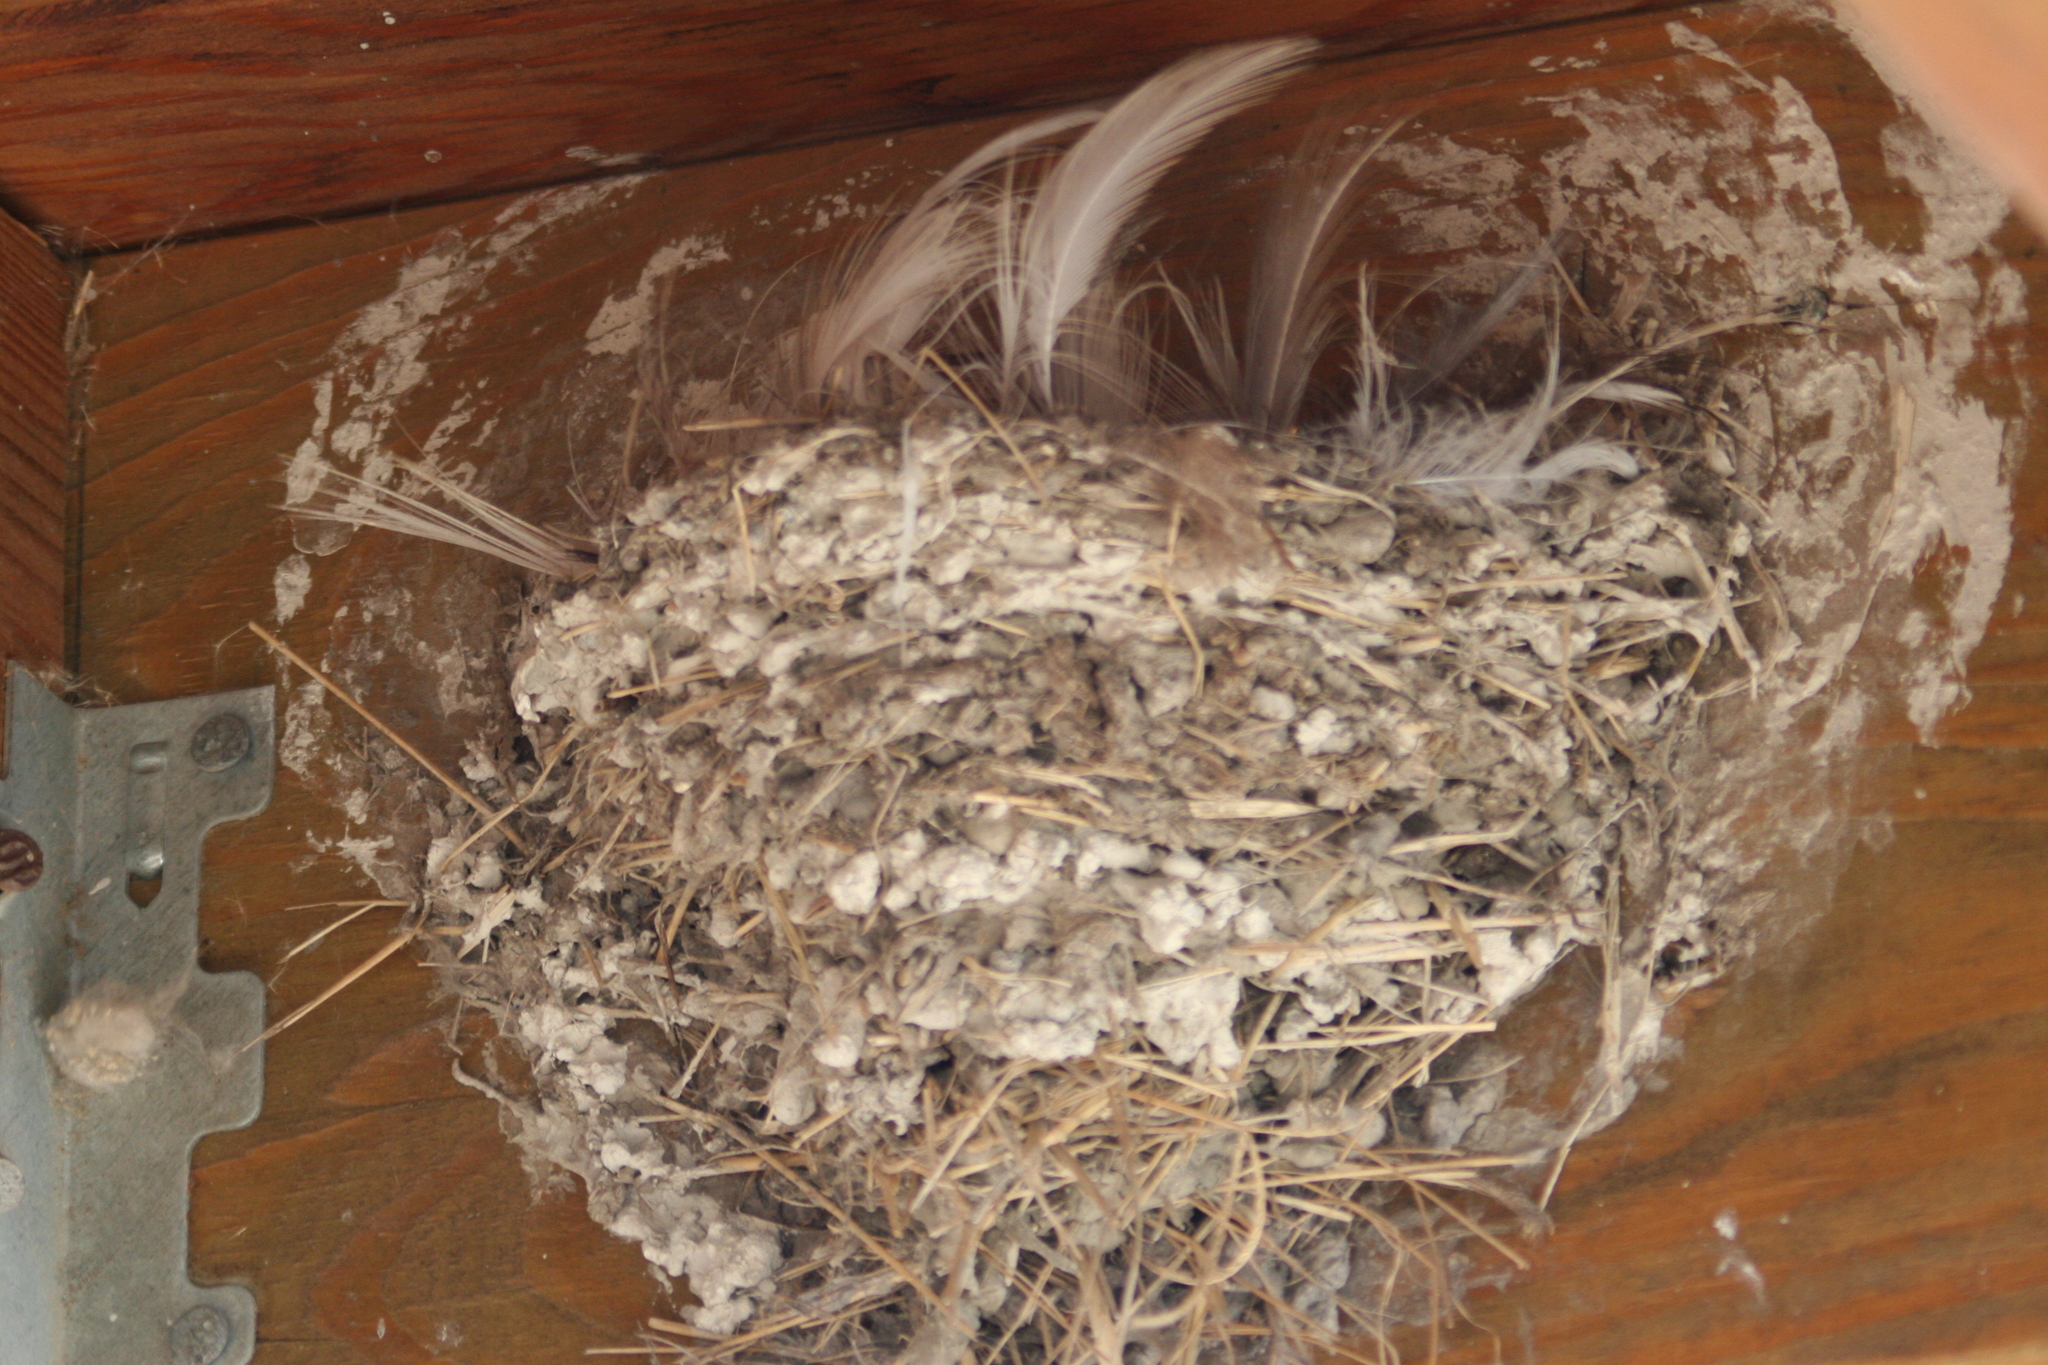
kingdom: Animalia
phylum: Chordata
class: Aves
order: Passeriformes
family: Hirundinidae
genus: Hirundo
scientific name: Hirundo rustica
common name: Barn swallow
